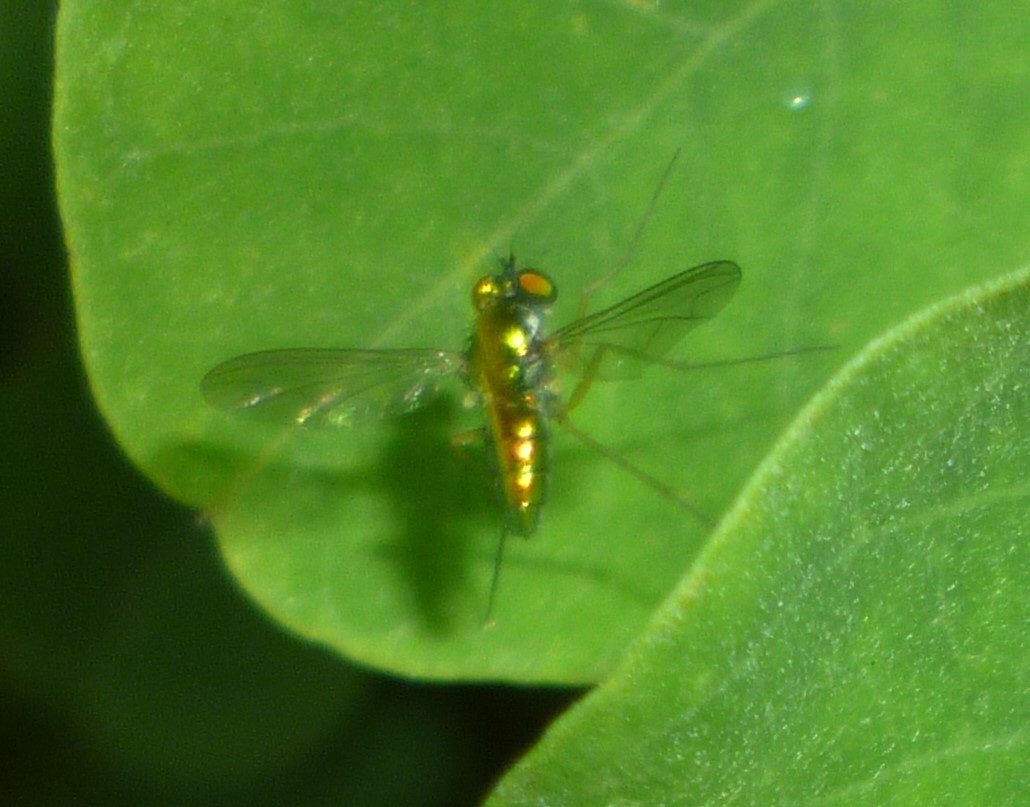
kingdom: Animalia
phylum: Arthropoda
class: Insecta
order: Diptera
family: Dolichopodidae
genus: Amblypsilopus
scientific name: Amblypsilopus scintillans
